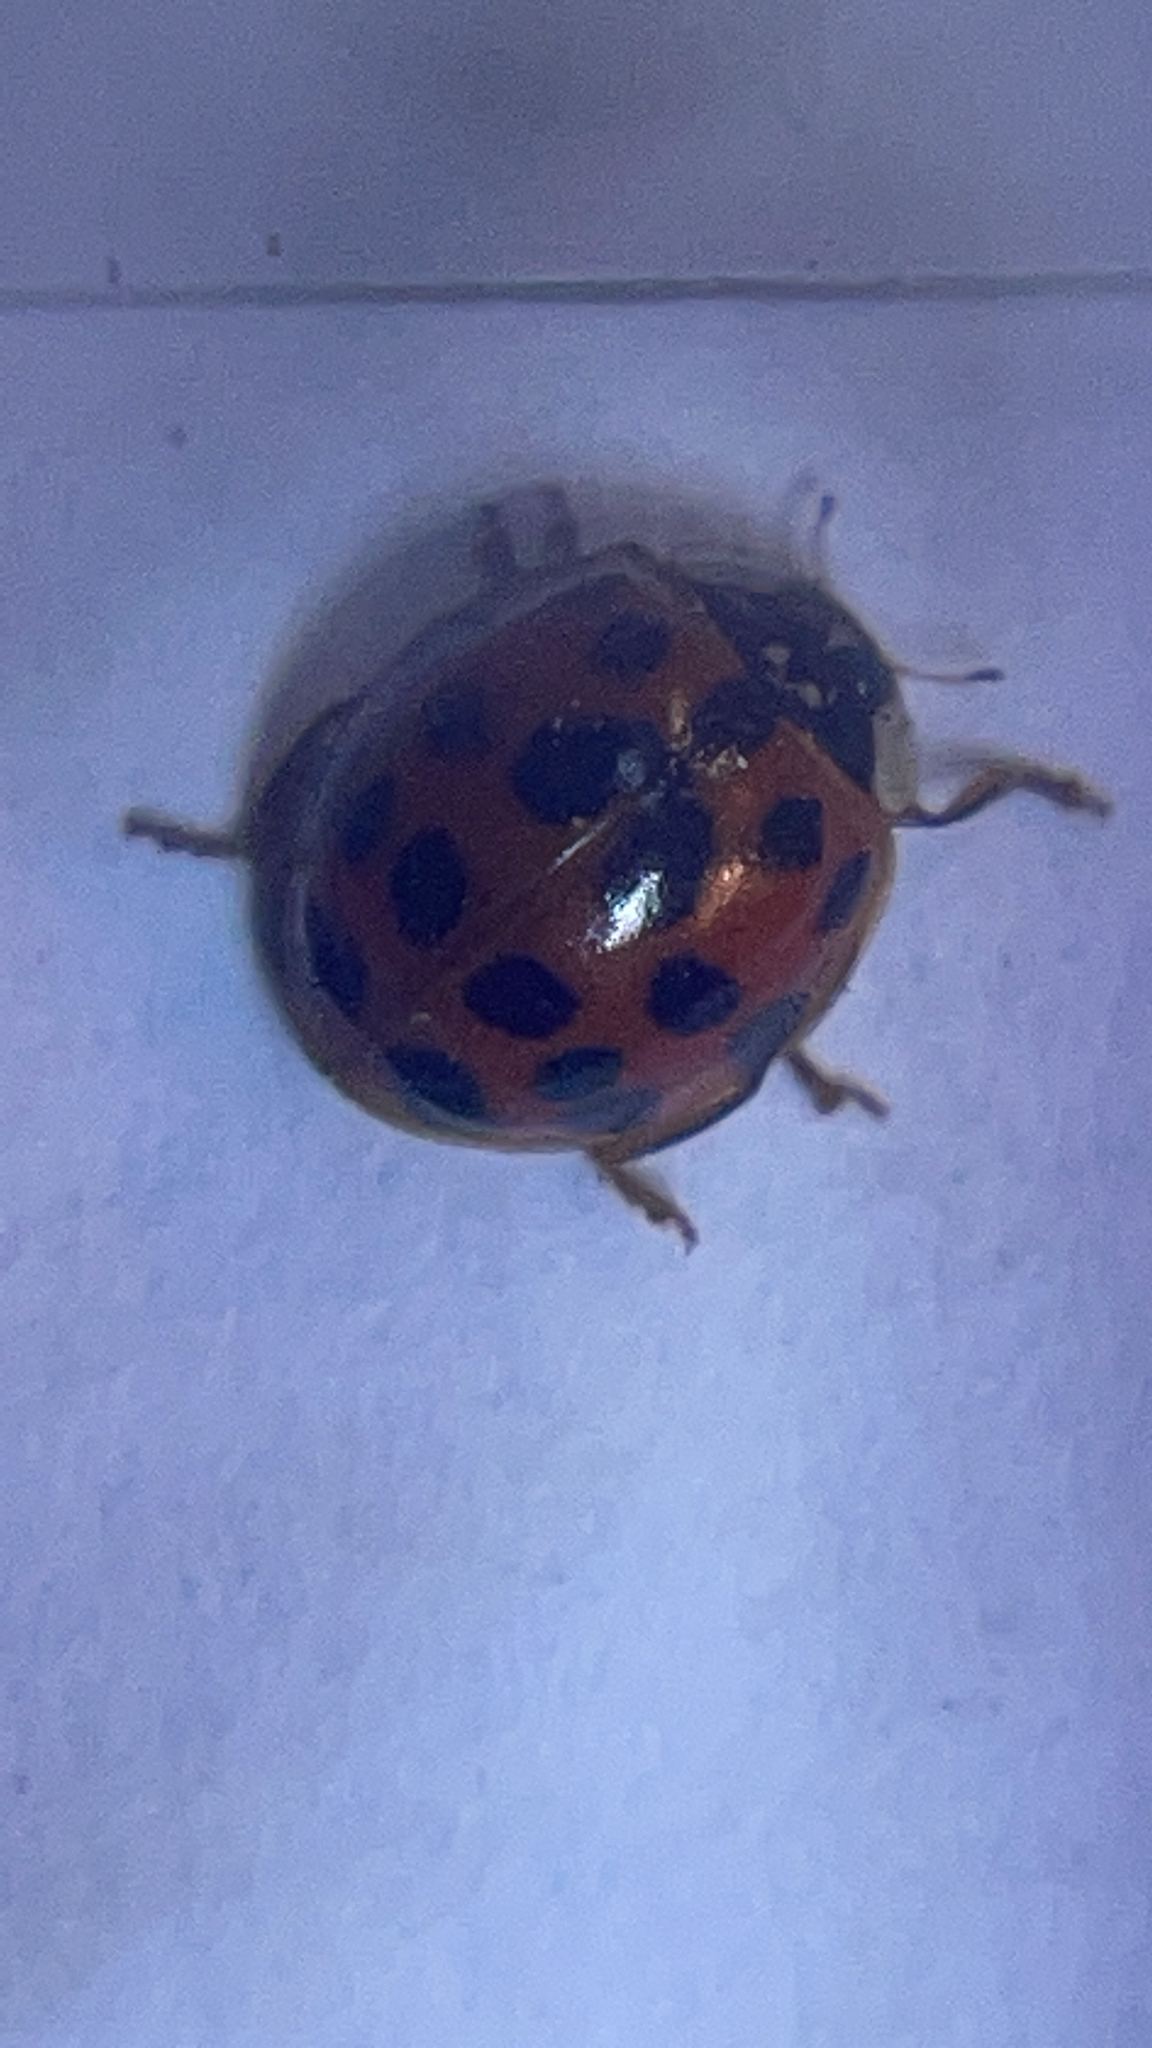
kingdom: Animalia
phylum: Arthropoda
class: Insecta
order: Coleoptera
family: Coccinellidae
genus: Harmonia
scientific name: Harmonia axyridis
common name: Harlequin ladybird
